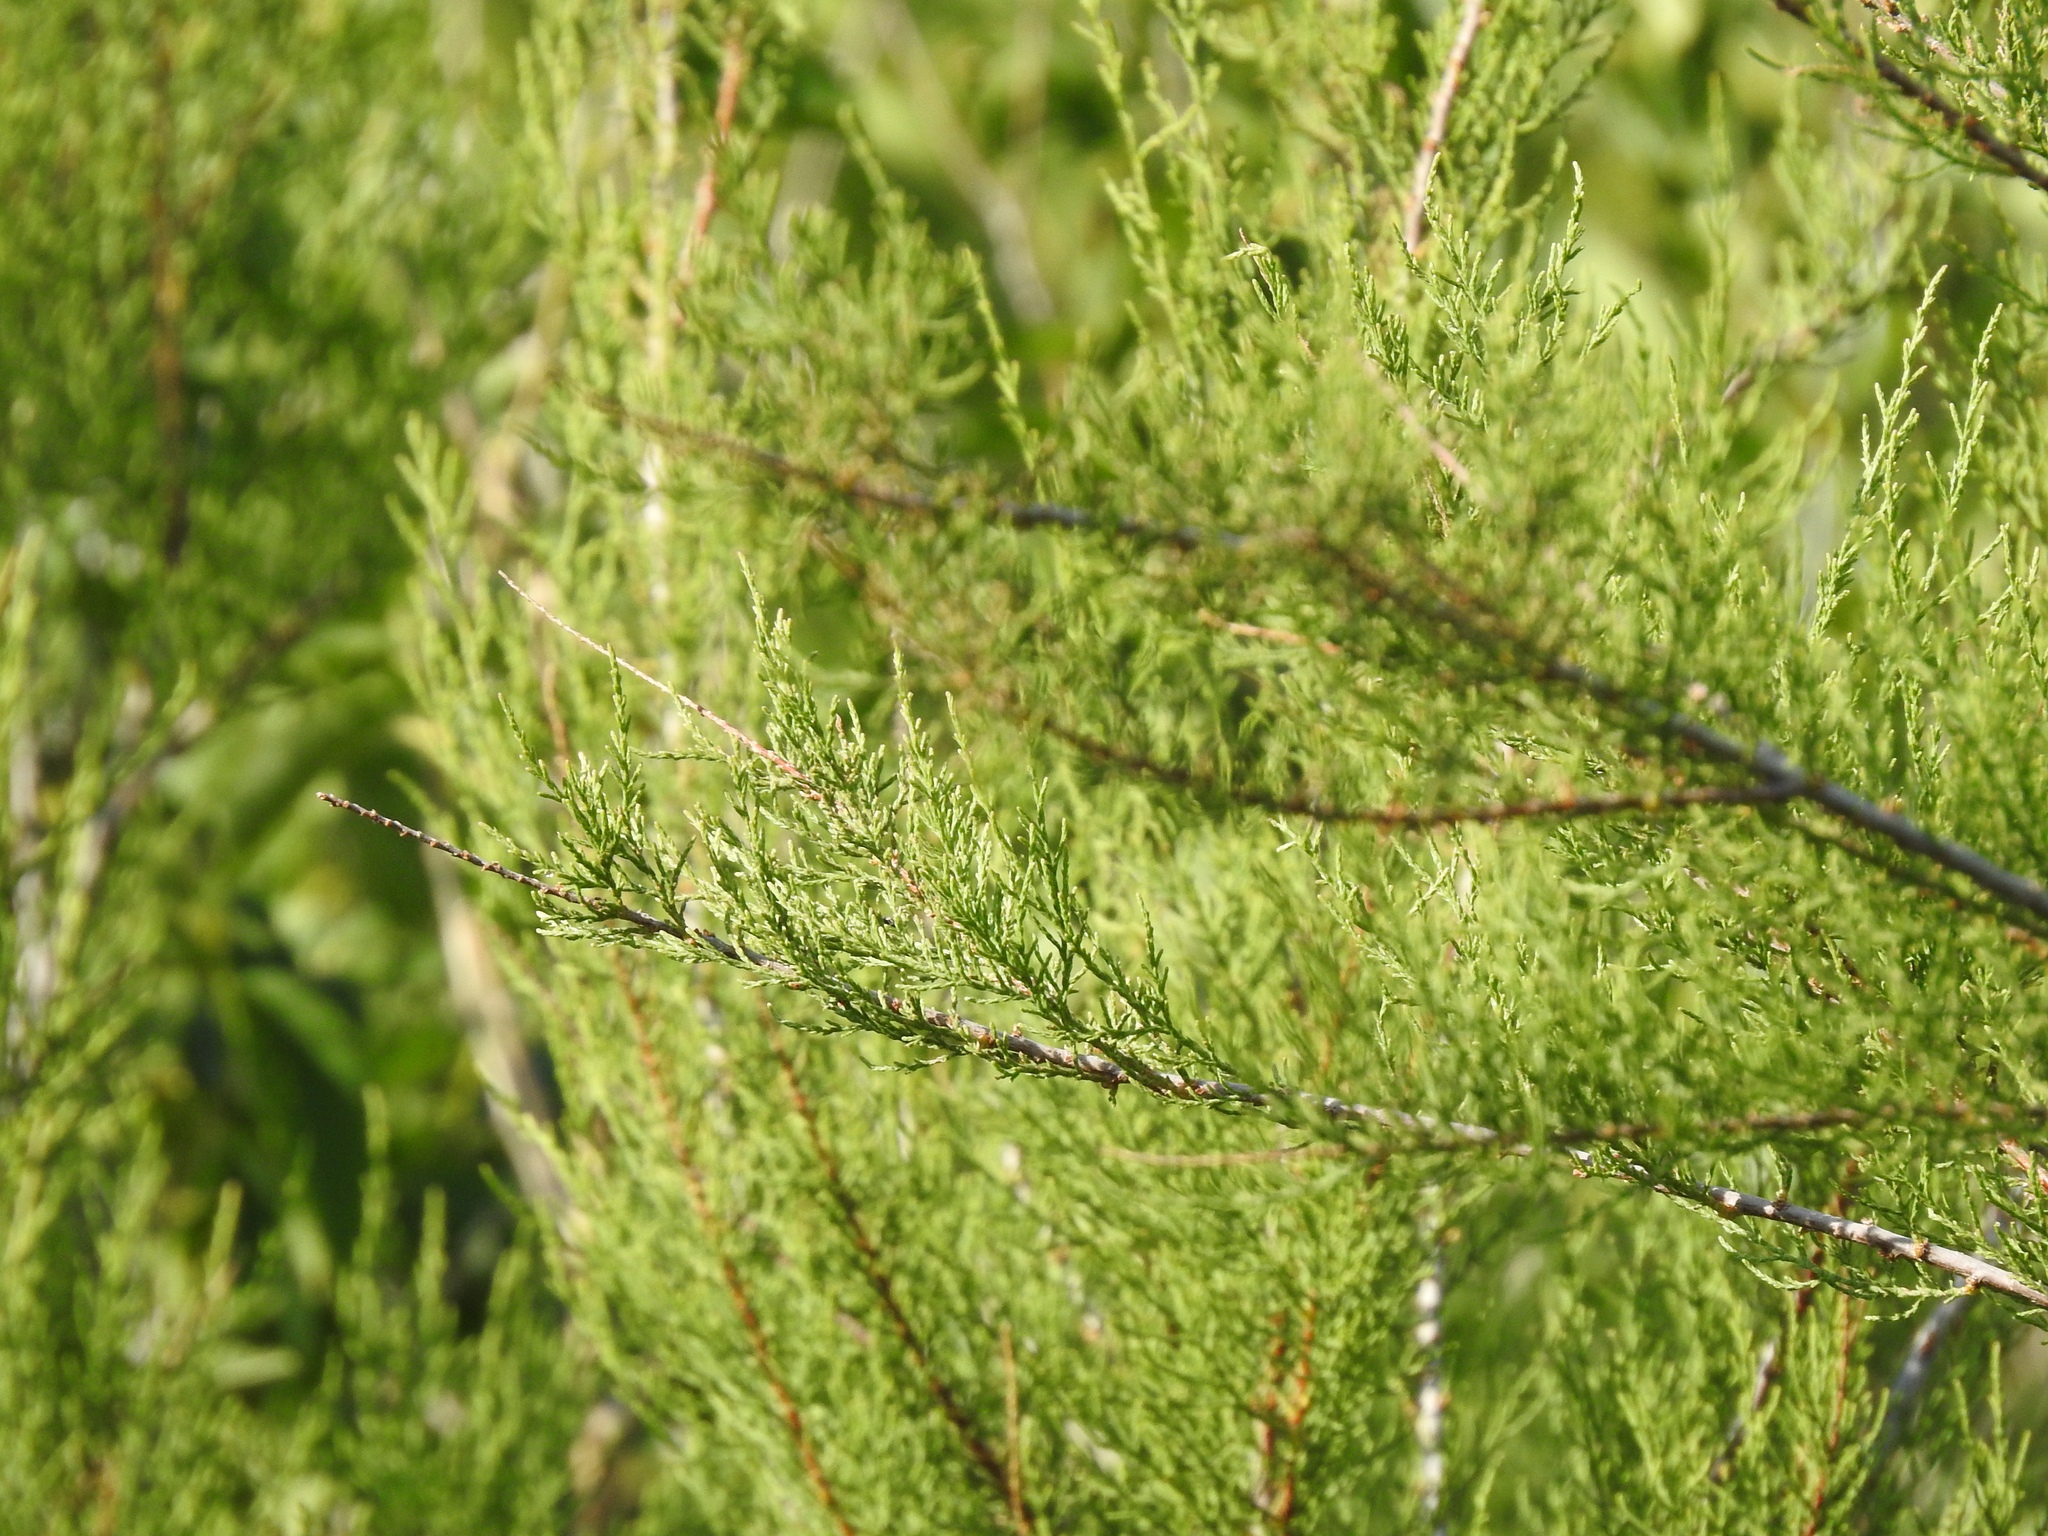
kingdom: Plantae
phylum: Tracheophyta
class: Magnoliopsida
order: Caryophyllales
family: Tamaricaceae
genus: Tamarix
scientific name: Tamarix
